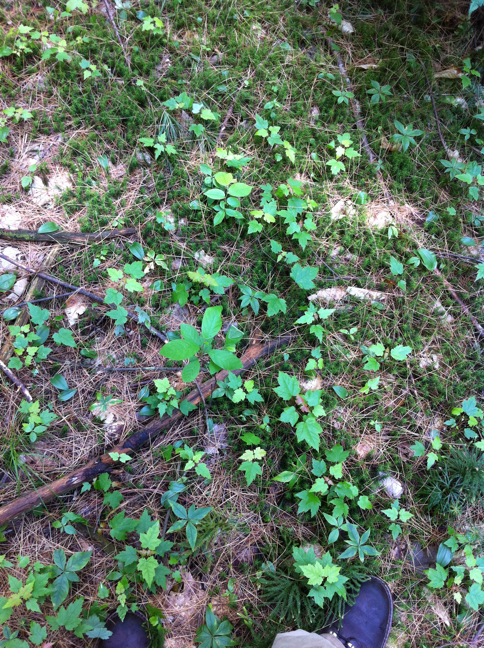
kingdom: Plantae
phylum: Tracheophyta
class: Magnoliopsida
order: Ericales
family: Primulaceae
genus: Lysimachia
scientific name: Lysimachia borealis
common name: American starflower
